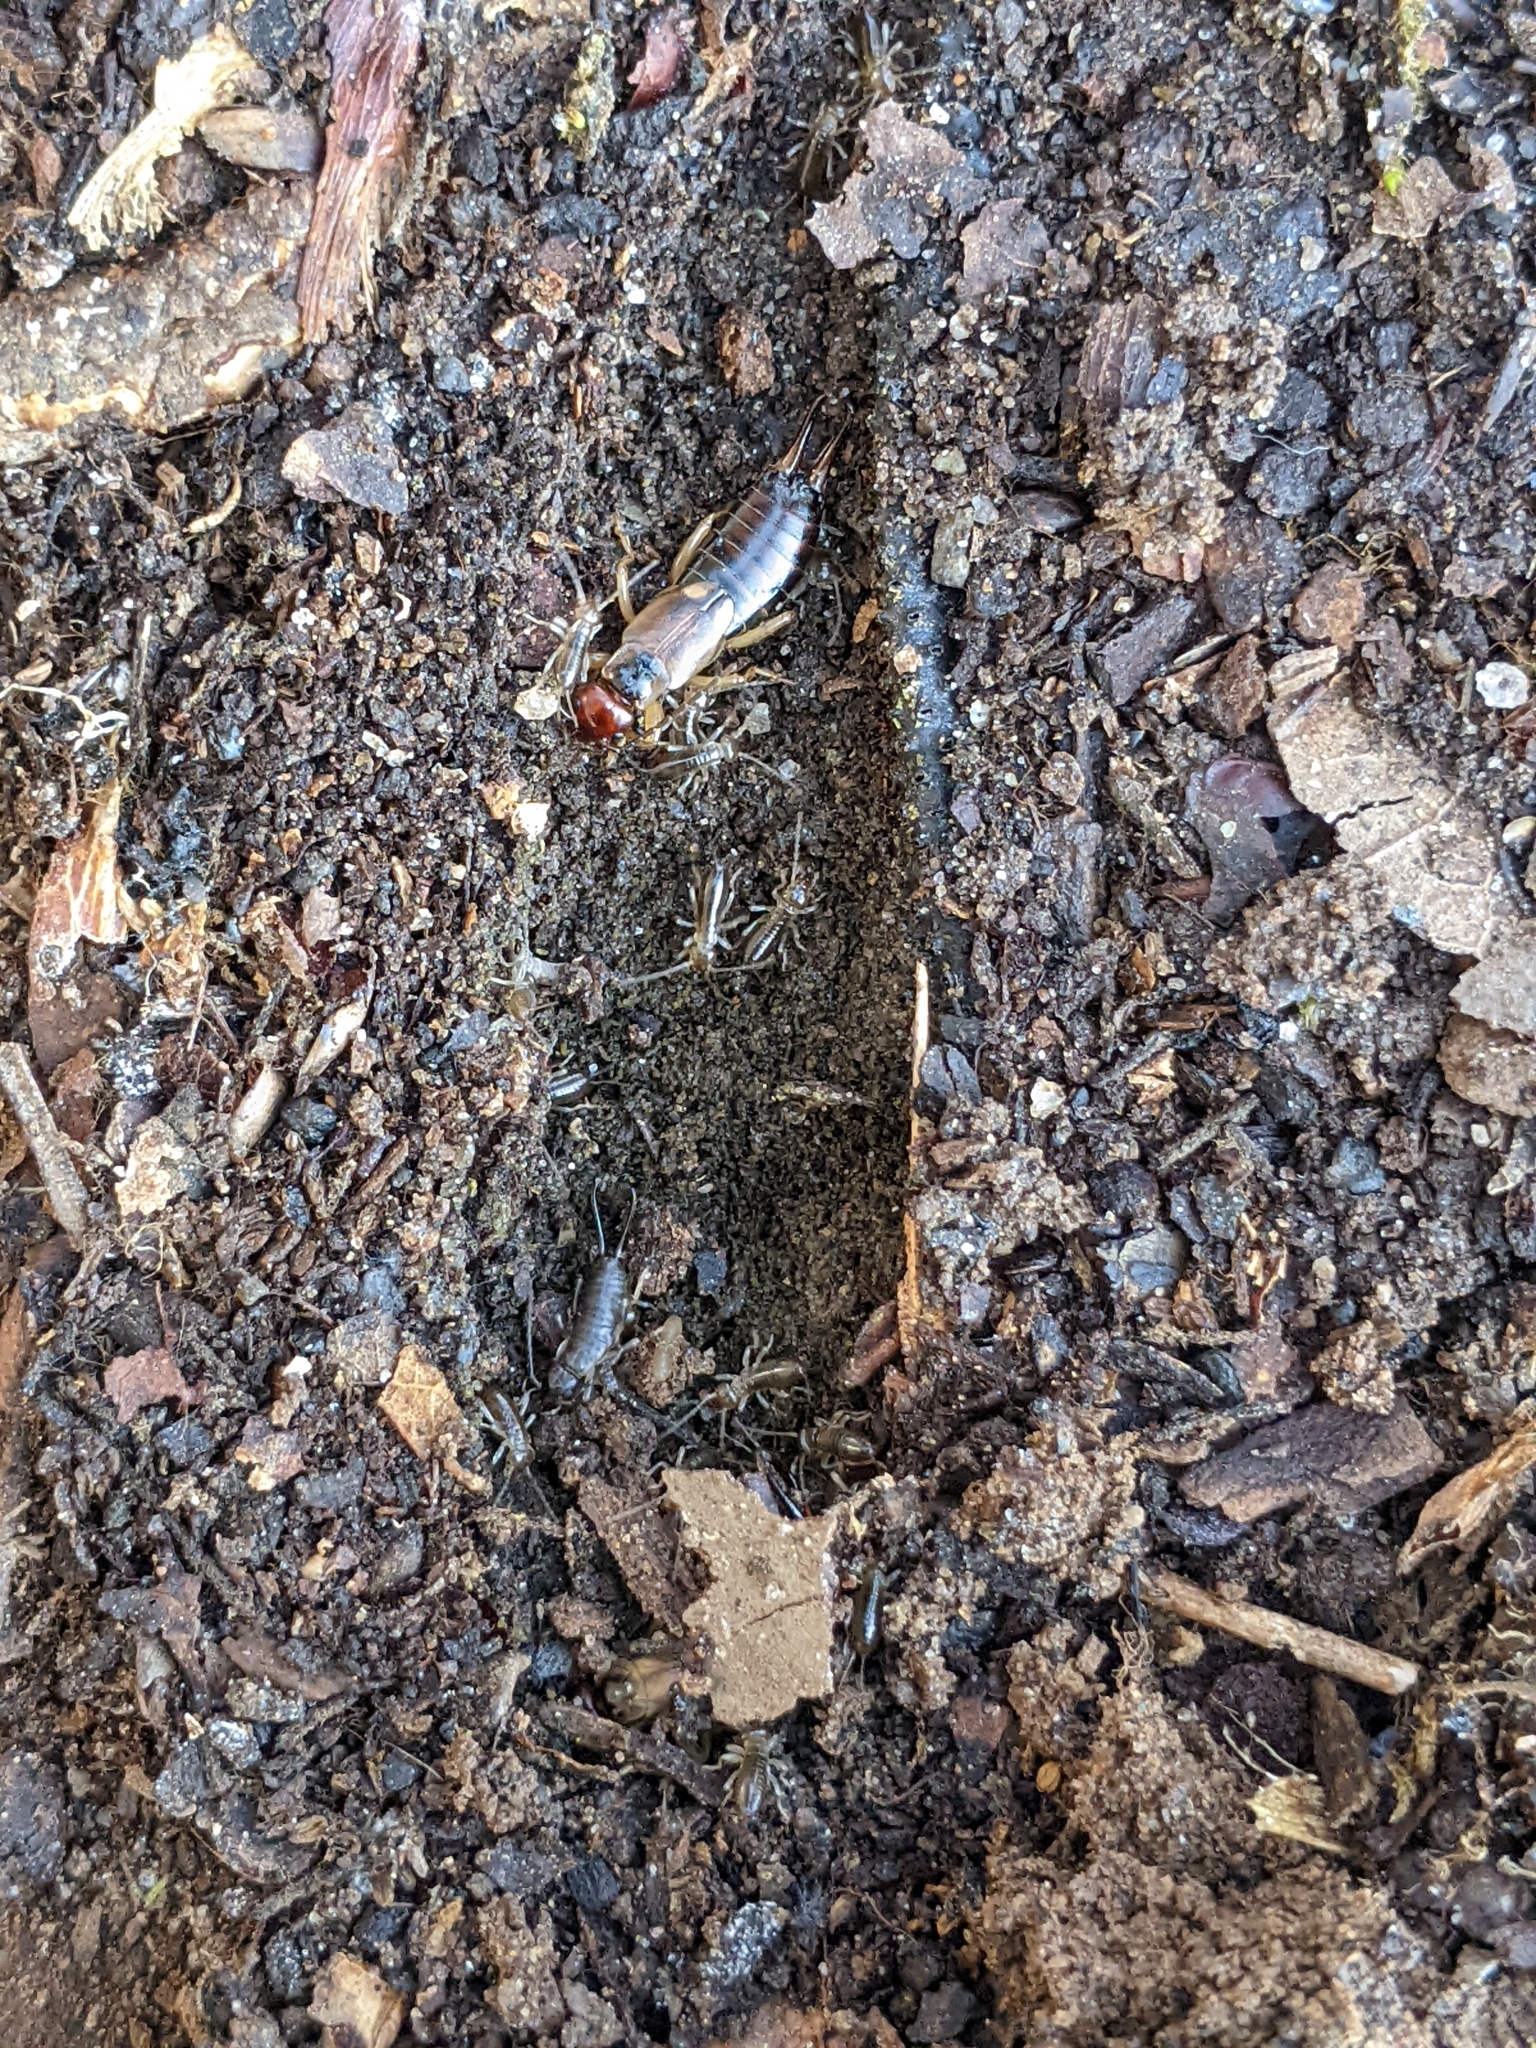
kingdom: Animalia
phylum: Arthropoda
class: Insecta
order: Dermaptera
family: Forficulidae
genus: Forficula
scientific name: Forficula
